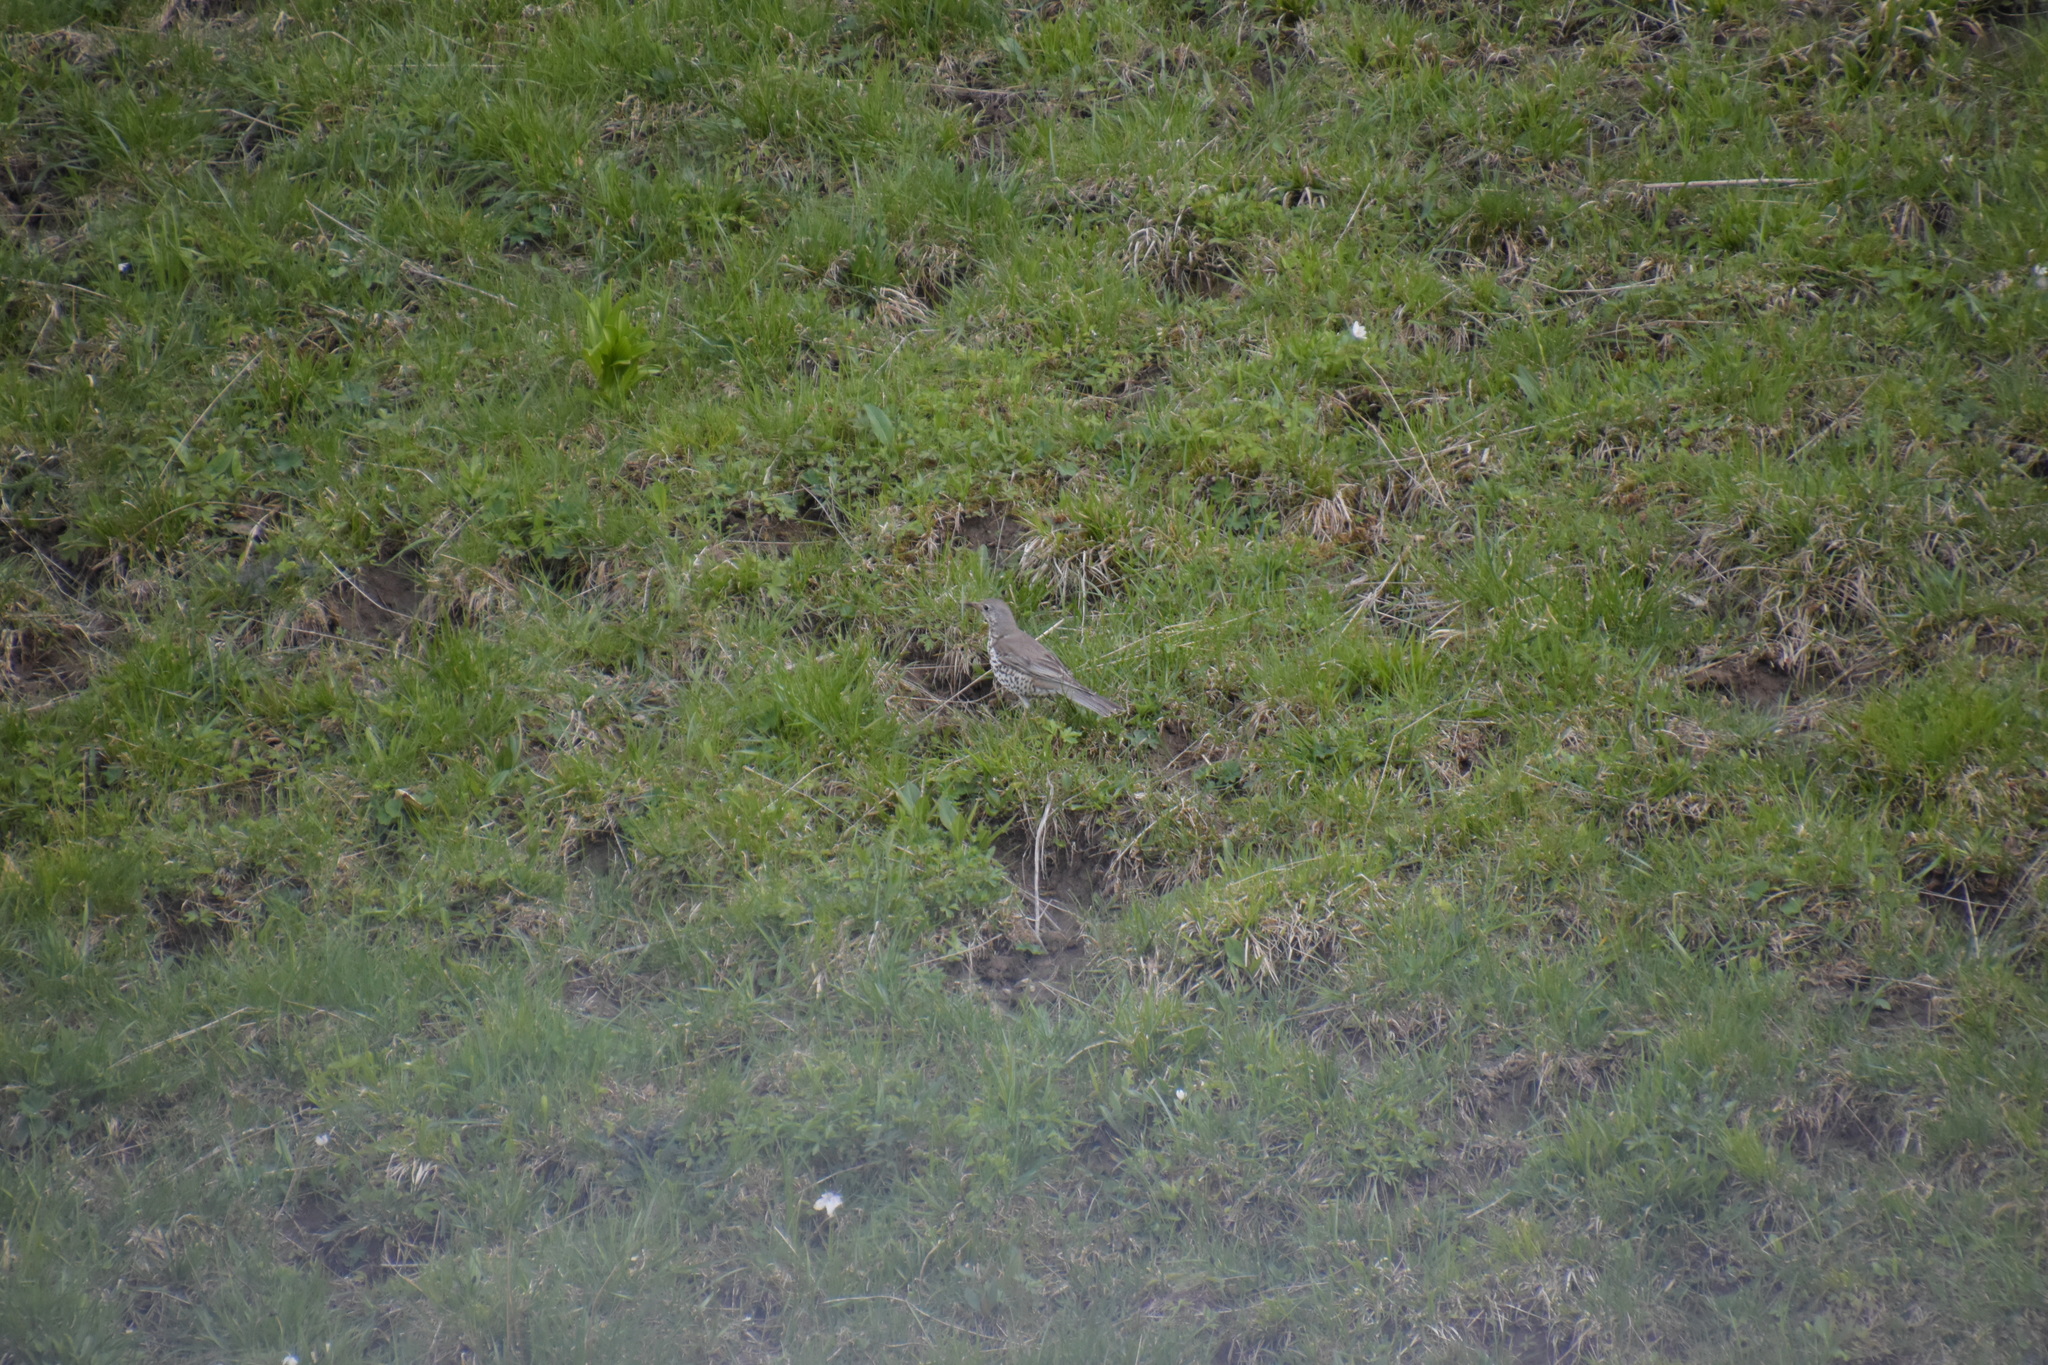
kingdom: Animalia
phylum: Chordata
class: Aves
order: Passeriformes
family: Turdidae
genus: Turdus
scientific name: Turdus viscivorus
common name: Mistle thrush
